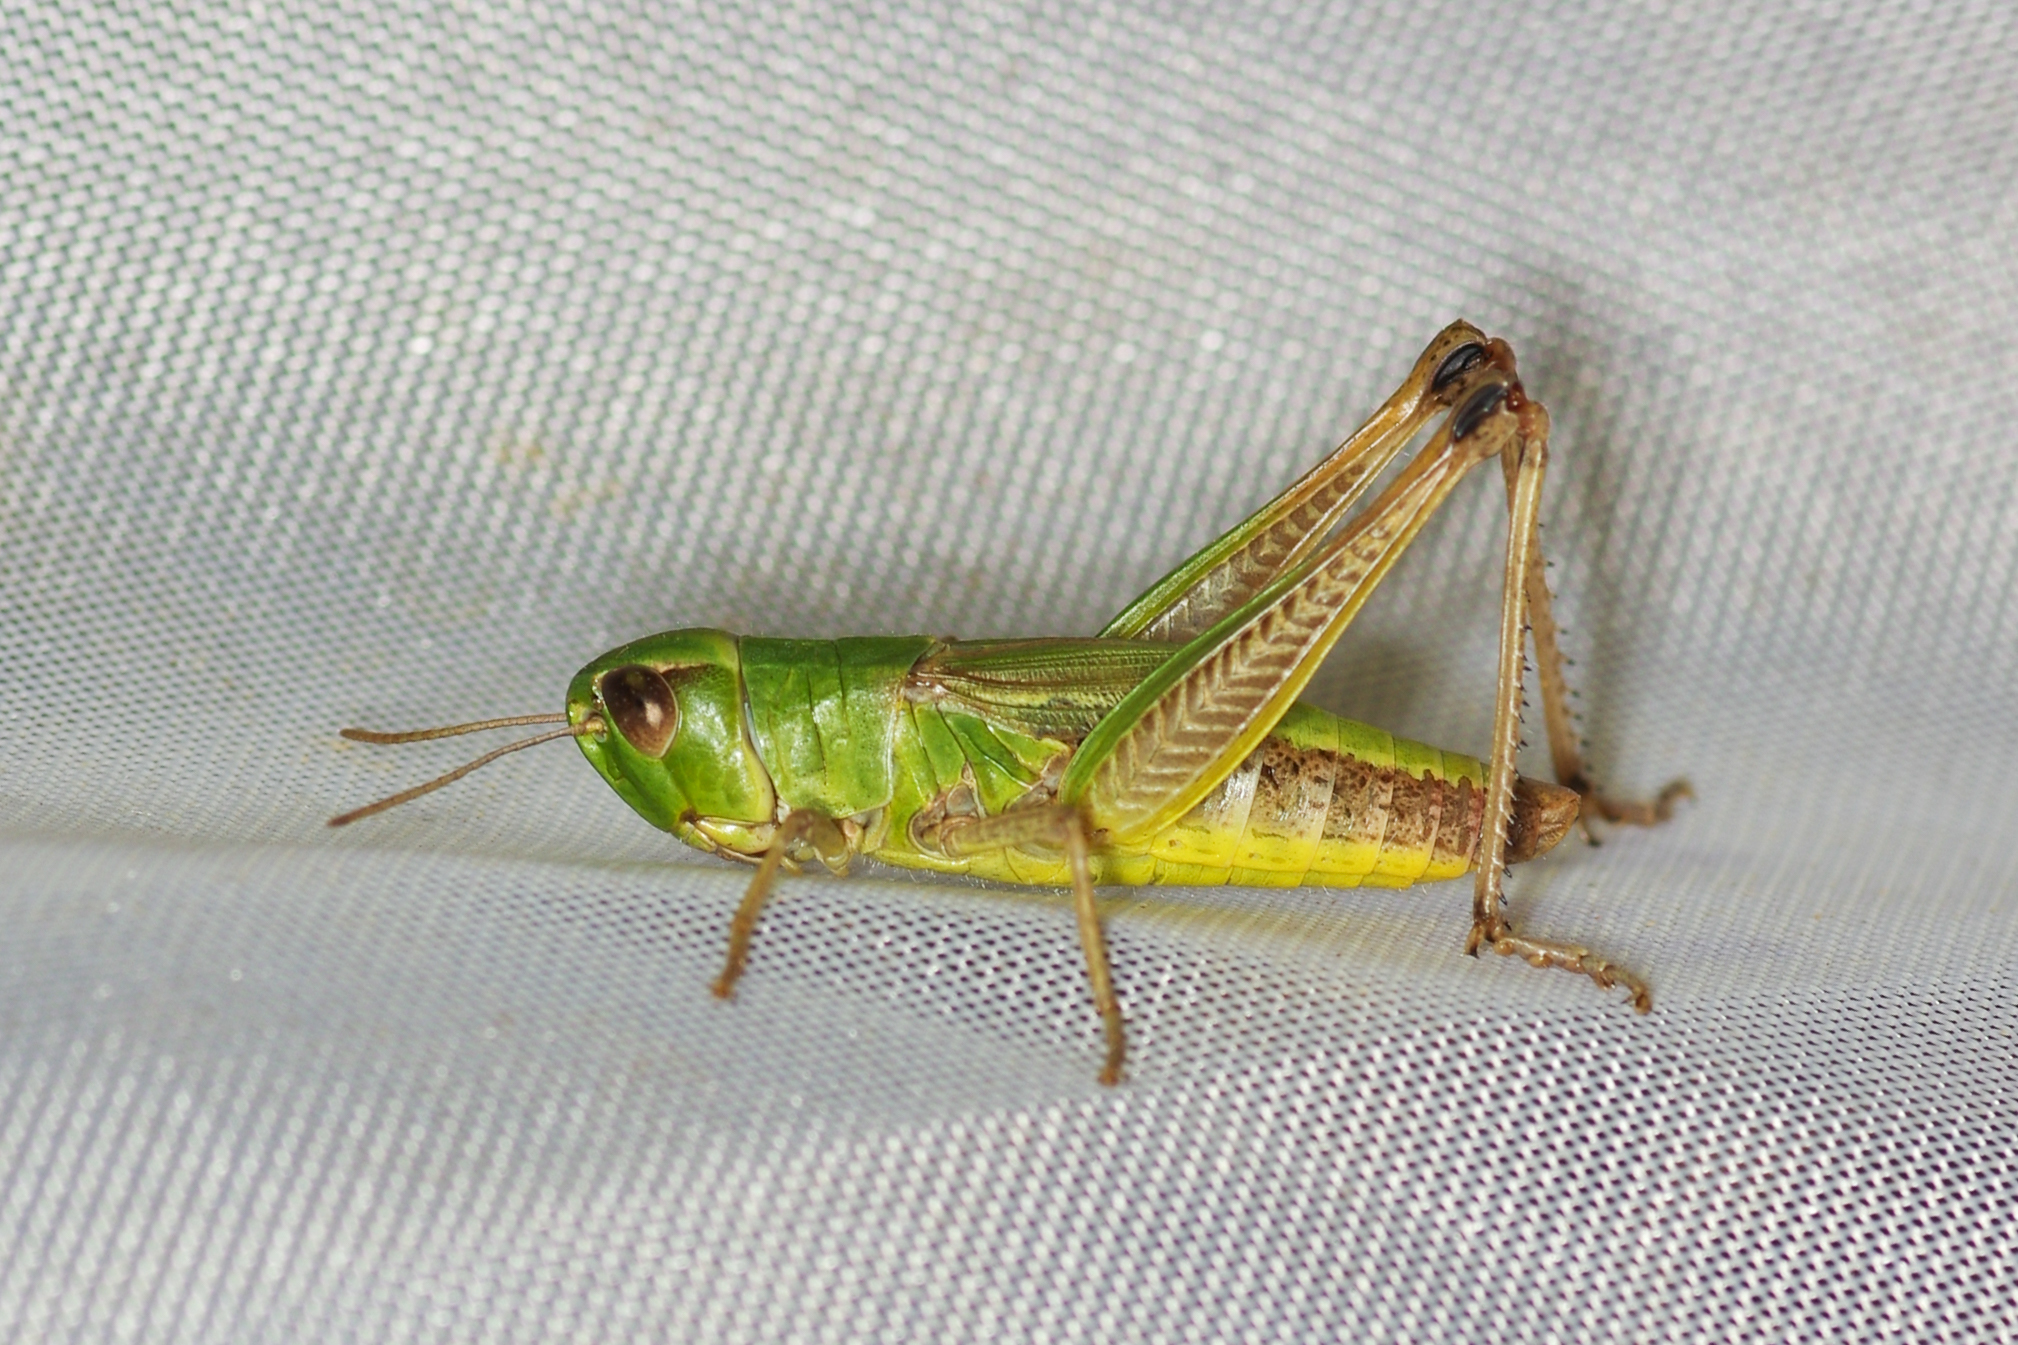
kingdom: Animalia
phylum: Arthropoda
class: Insecta
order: Orthoptera
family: Acrididae
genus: Pseudochorthippus
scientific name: Pseudochorthippus parallelus
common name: Meadow grasshopper
